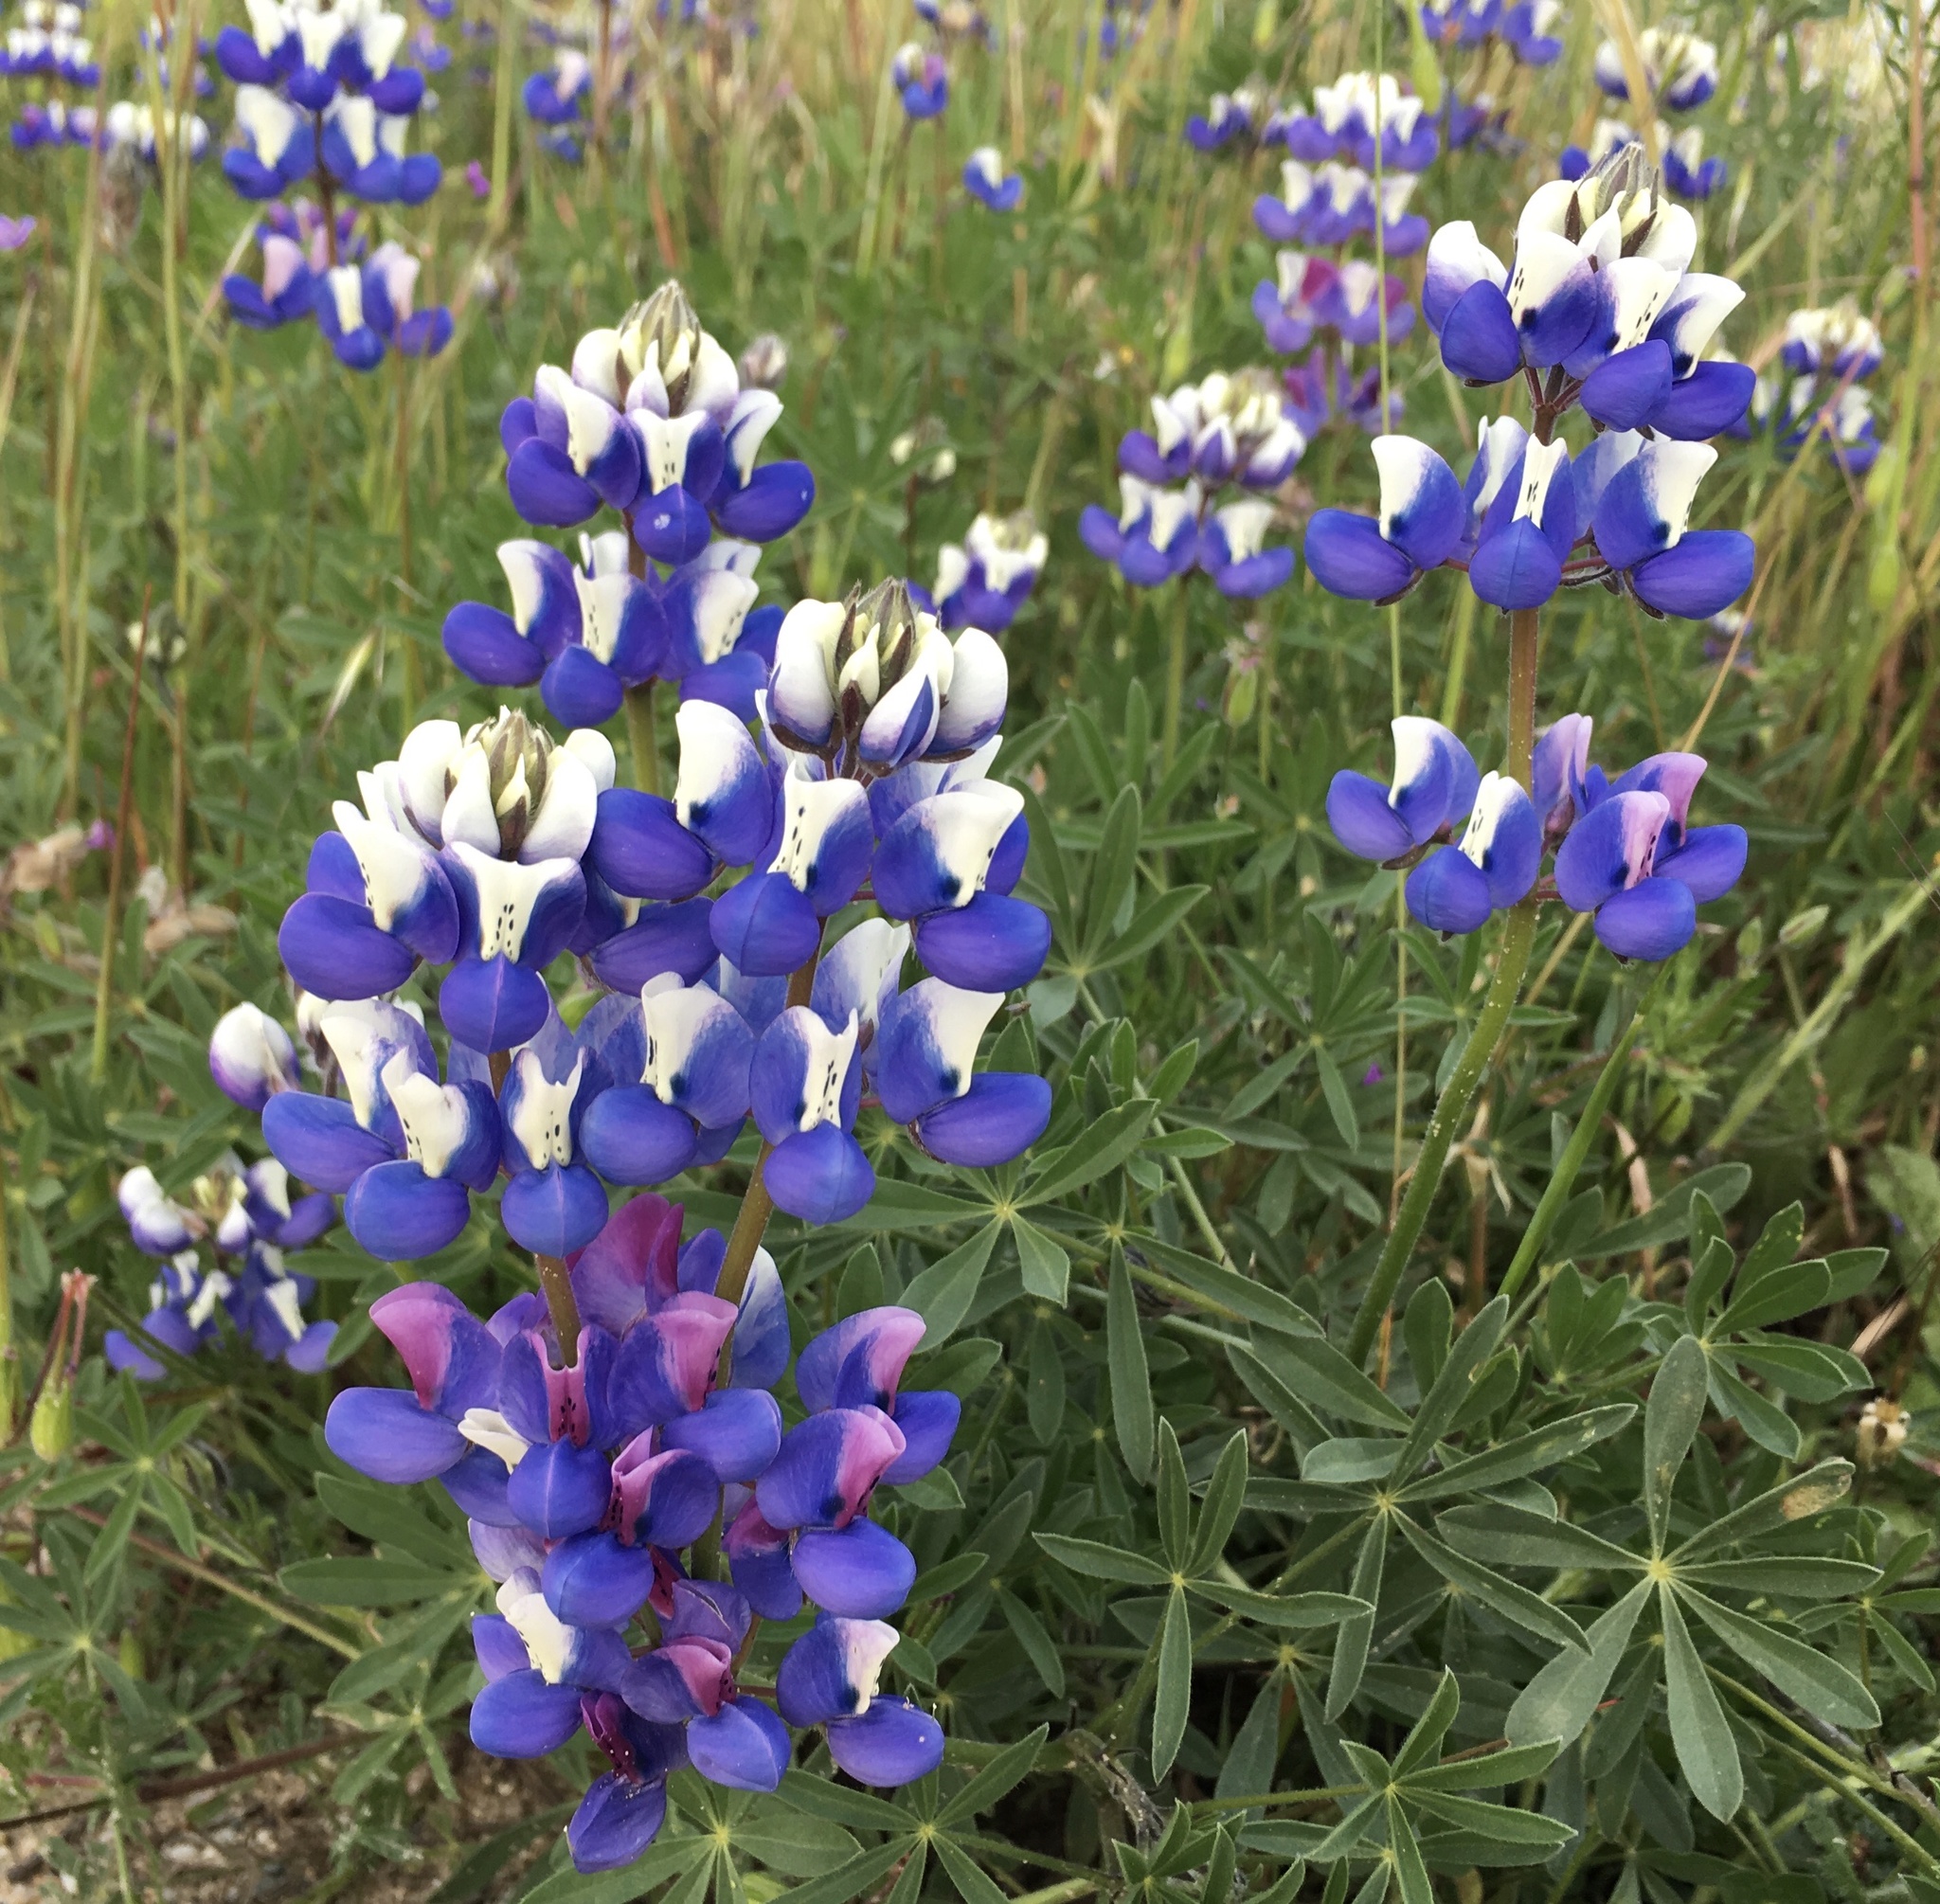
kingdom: Plantae
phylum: Tracheophyta
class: Magnoliopsida
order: Fabales
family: Fabaceae
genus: Lupinus
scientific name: Lupinus nanus
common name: Orean blue lupin
